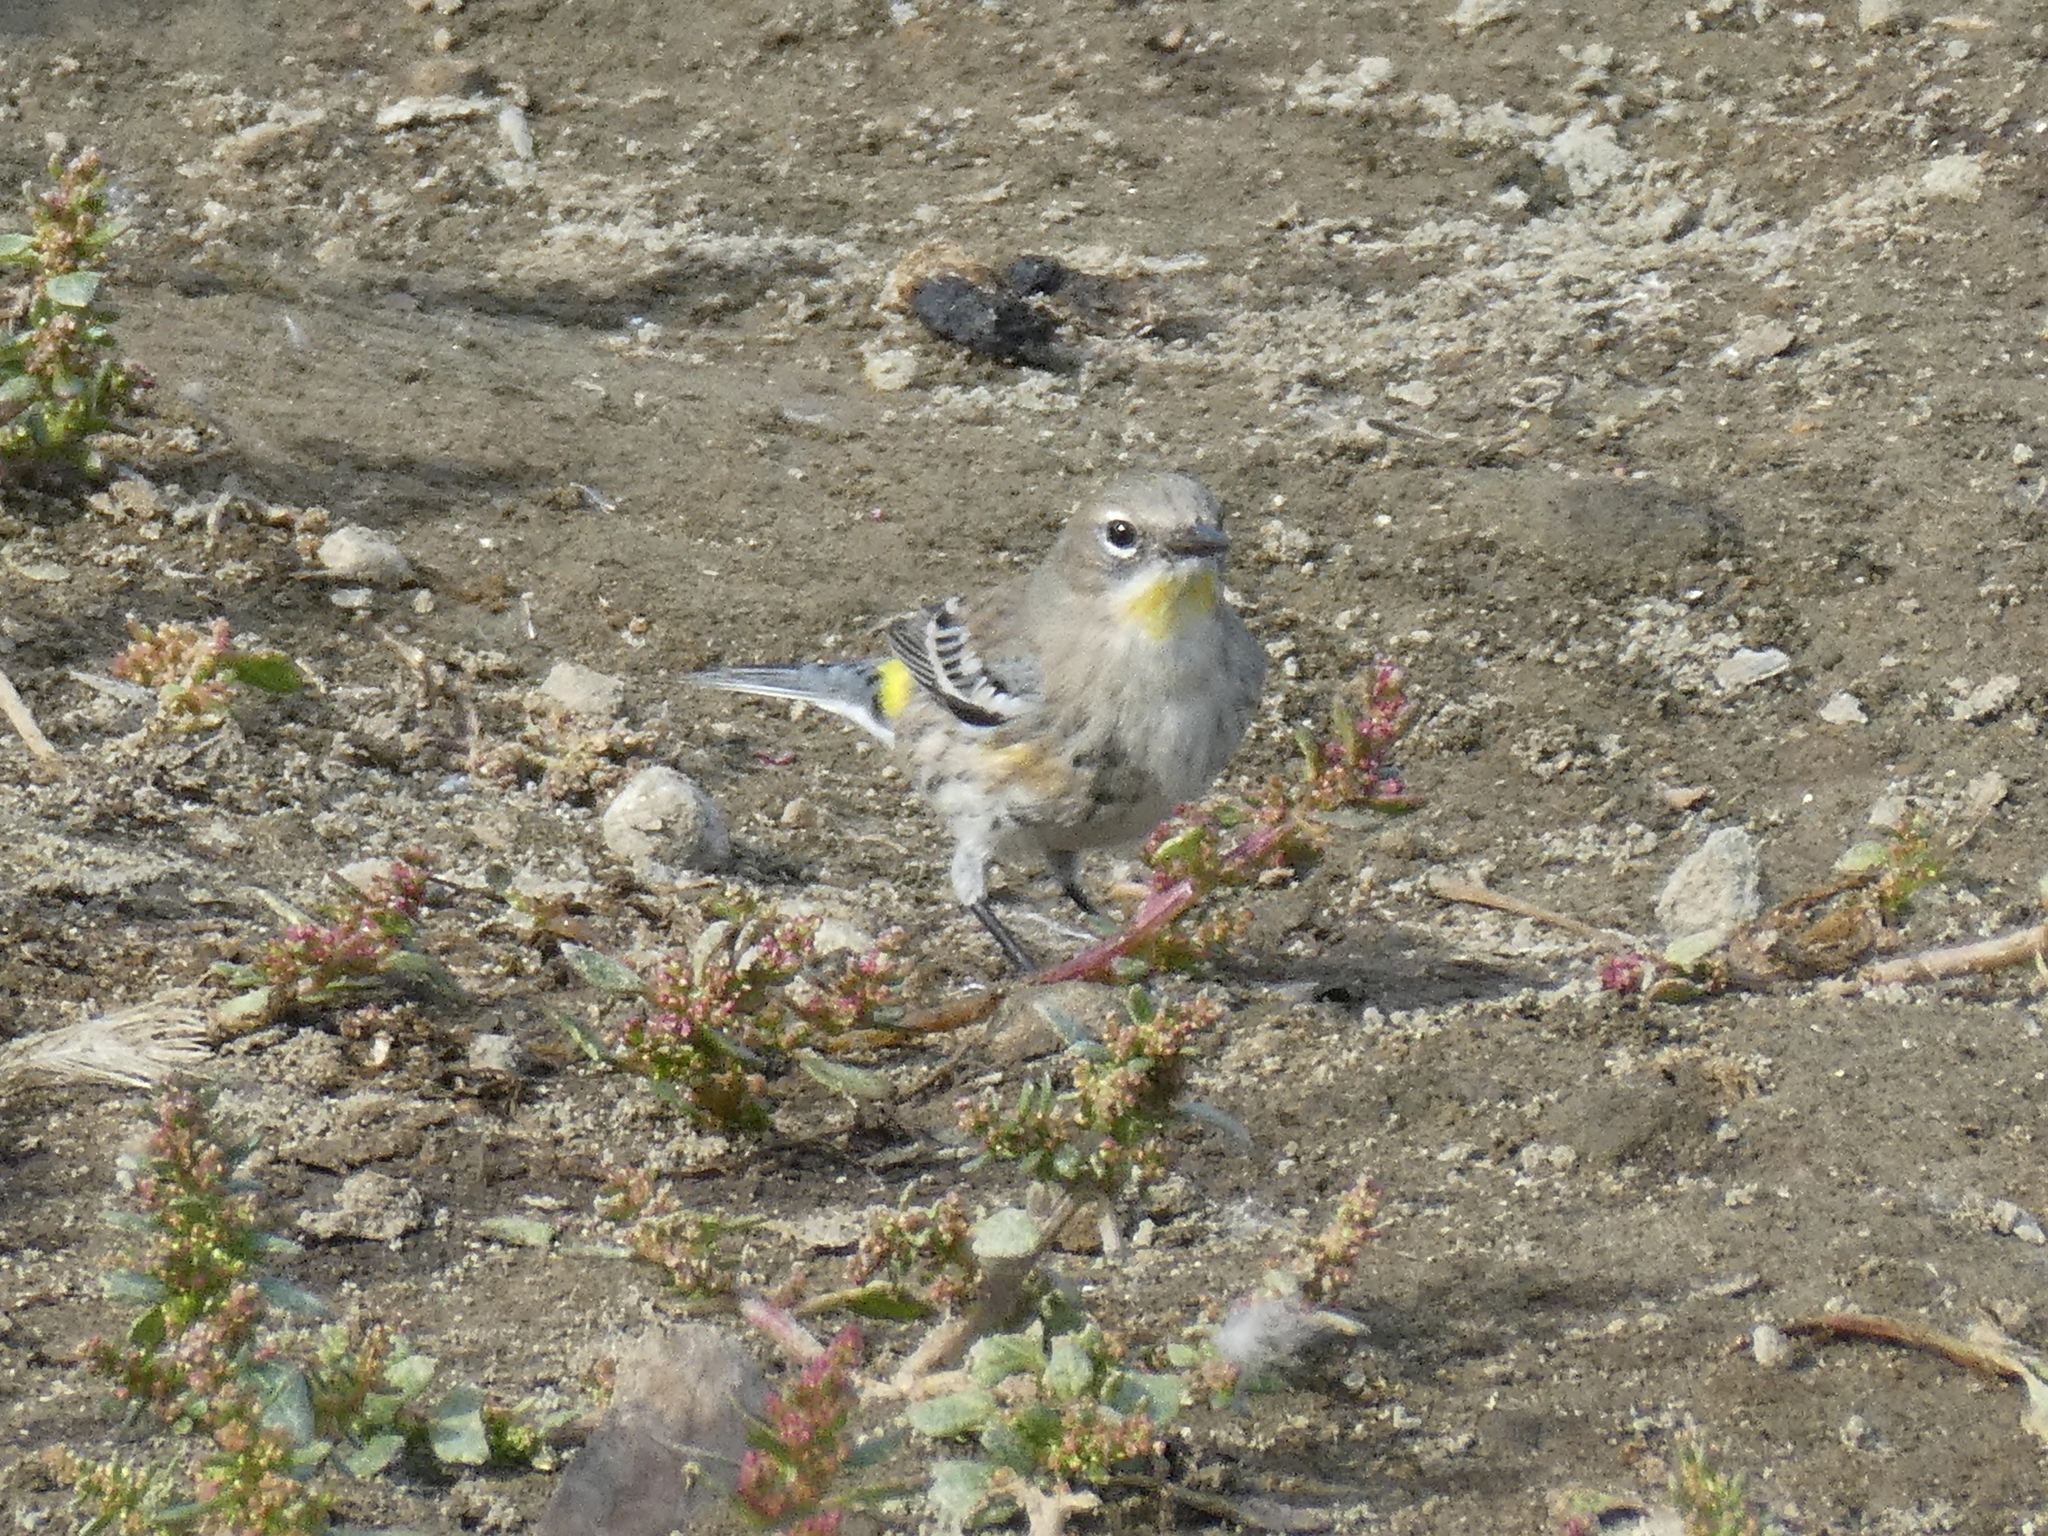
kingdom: Animalia
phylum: Chordata
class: Aves
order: Passeriformes
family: Parulidae
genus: Setophaga
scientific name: Setophaga auduboni
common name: Audubon's warbler
